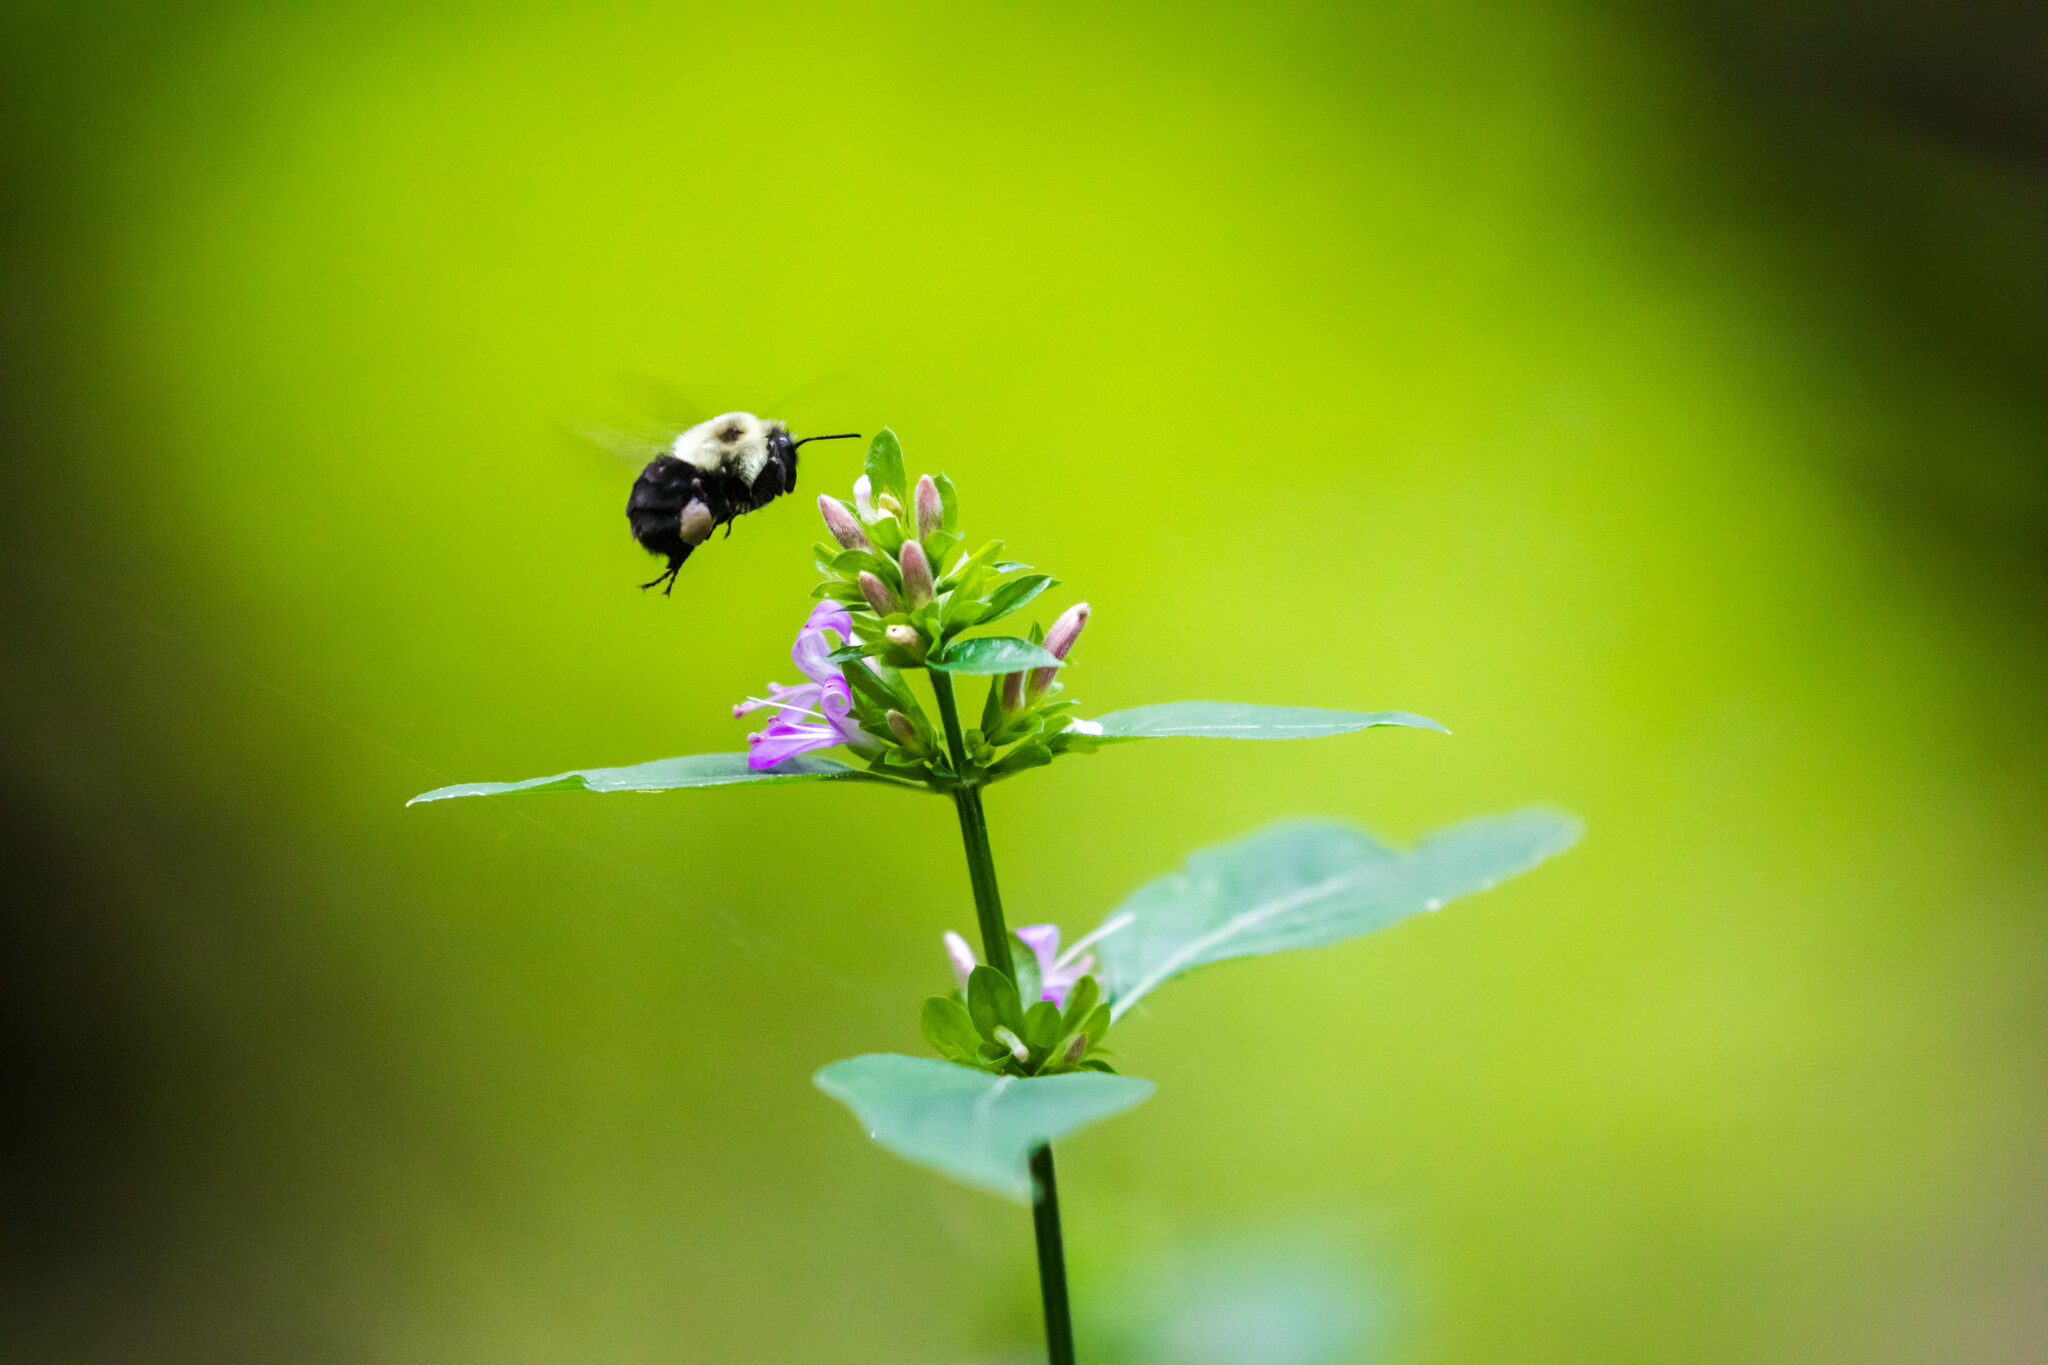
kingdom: Animalia
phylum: Arthropoda
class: Insecta
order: Hymenoptera
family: Apidae
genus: Bombus
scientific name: Bombus impatiens
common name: Common eastern bumble bee
